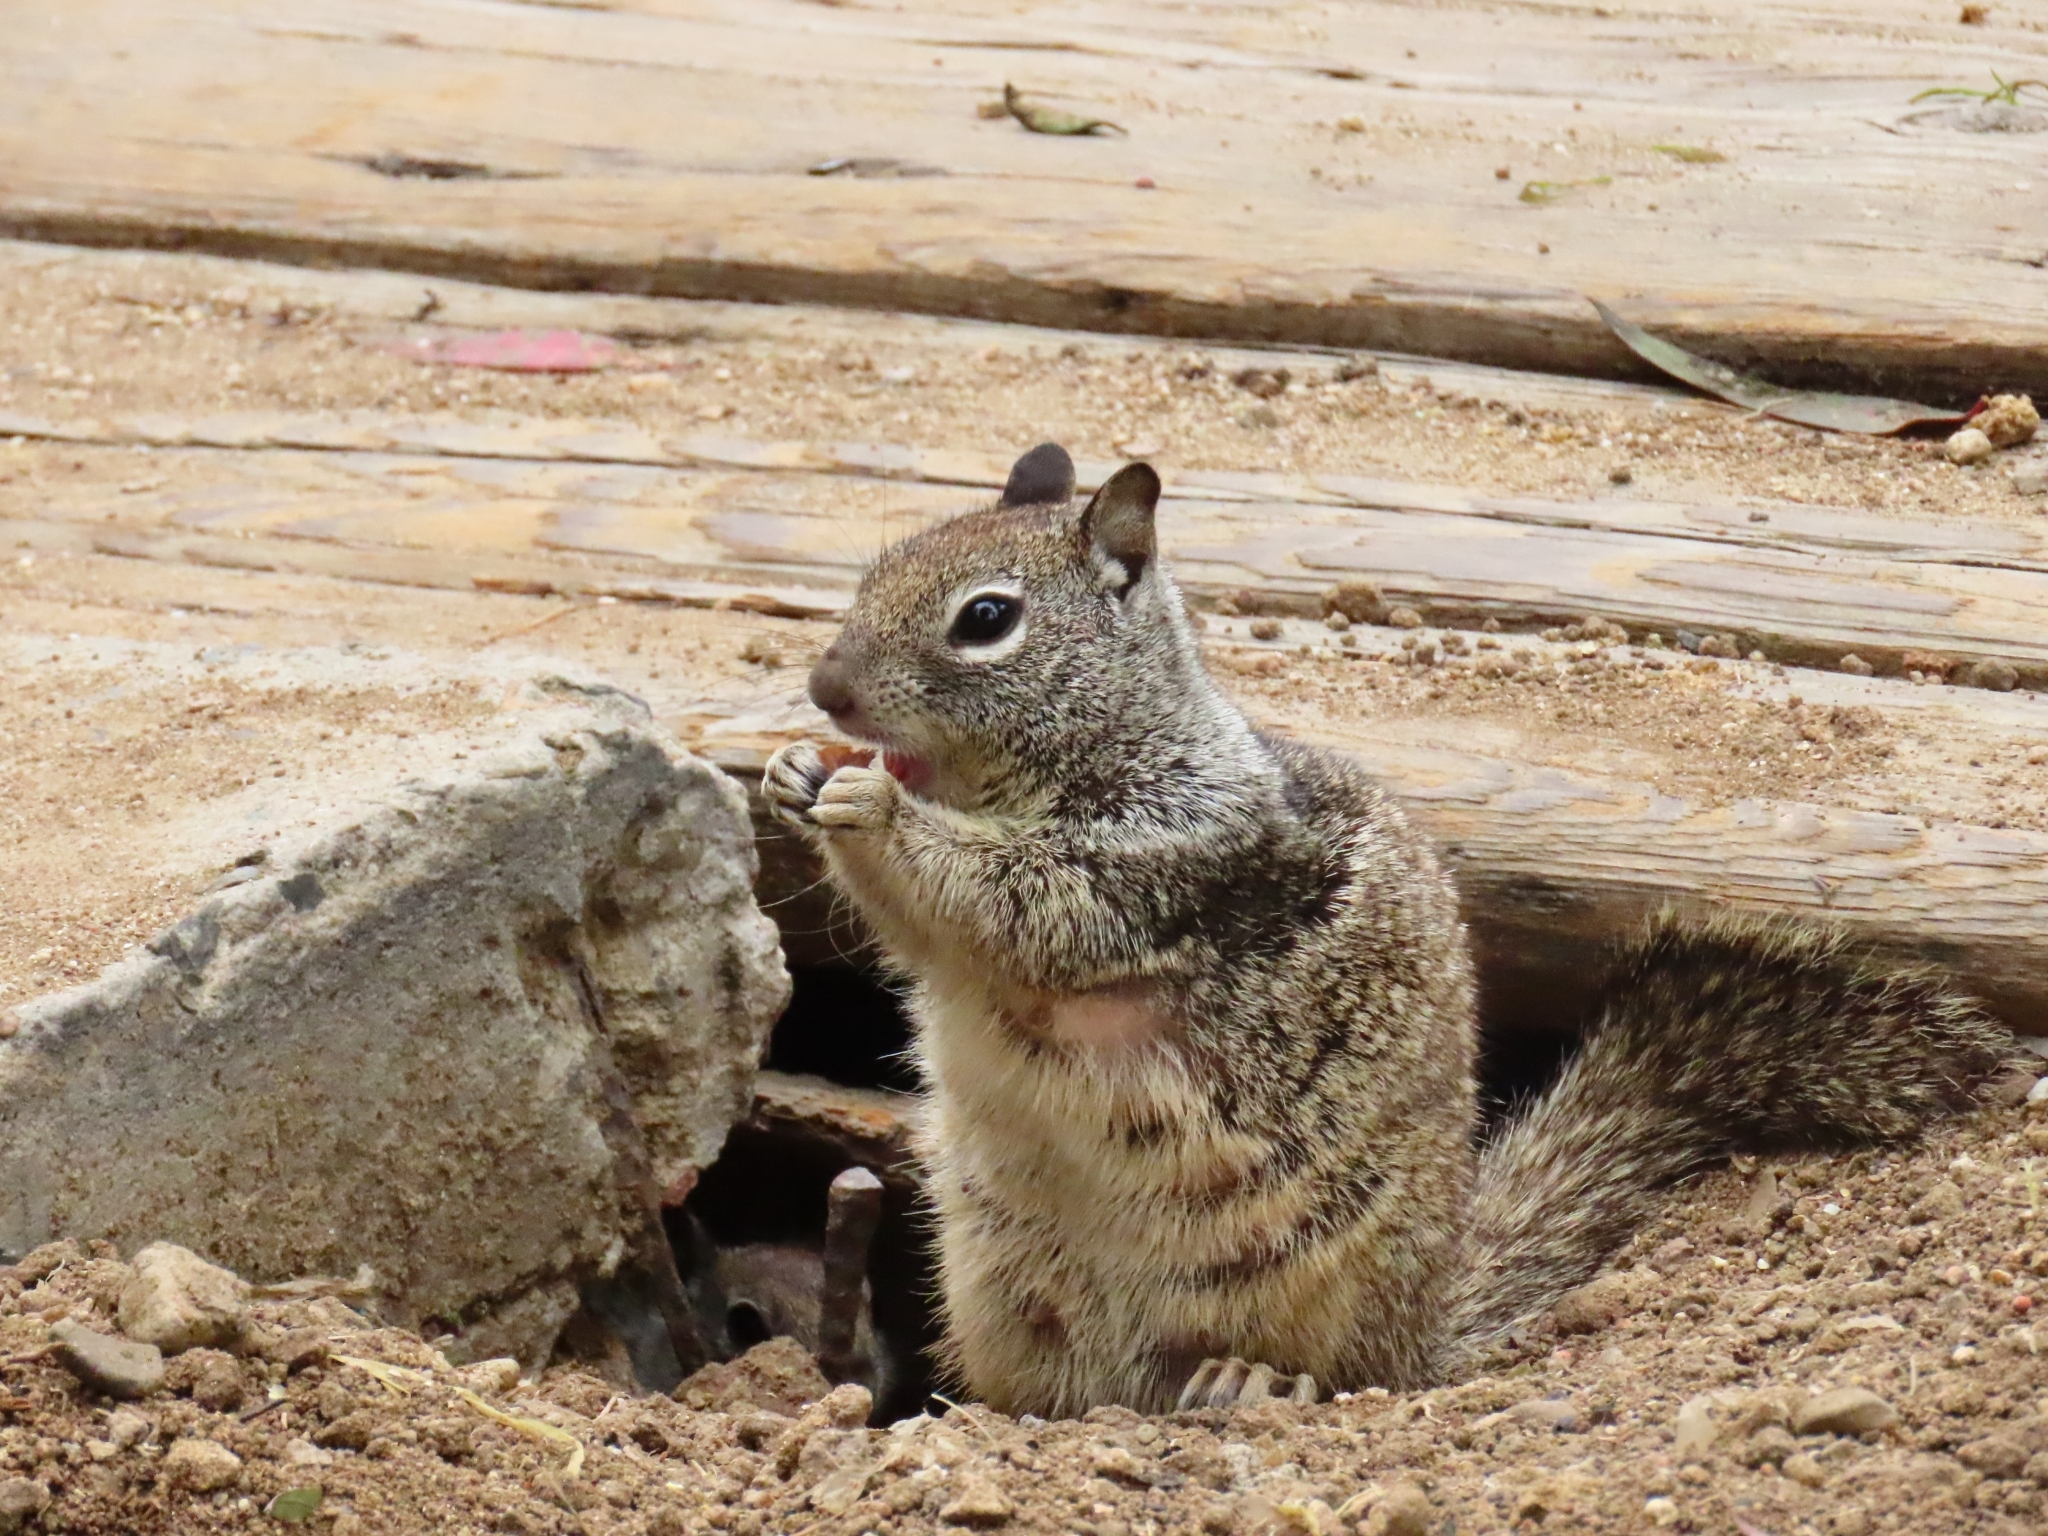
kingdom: Animalia
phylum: Chordata
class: Mammalia
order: Rodentia
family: Sciuridae
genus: Otospermophilus
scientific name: Otospermophilus beecheyi
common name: California ground squirrel
